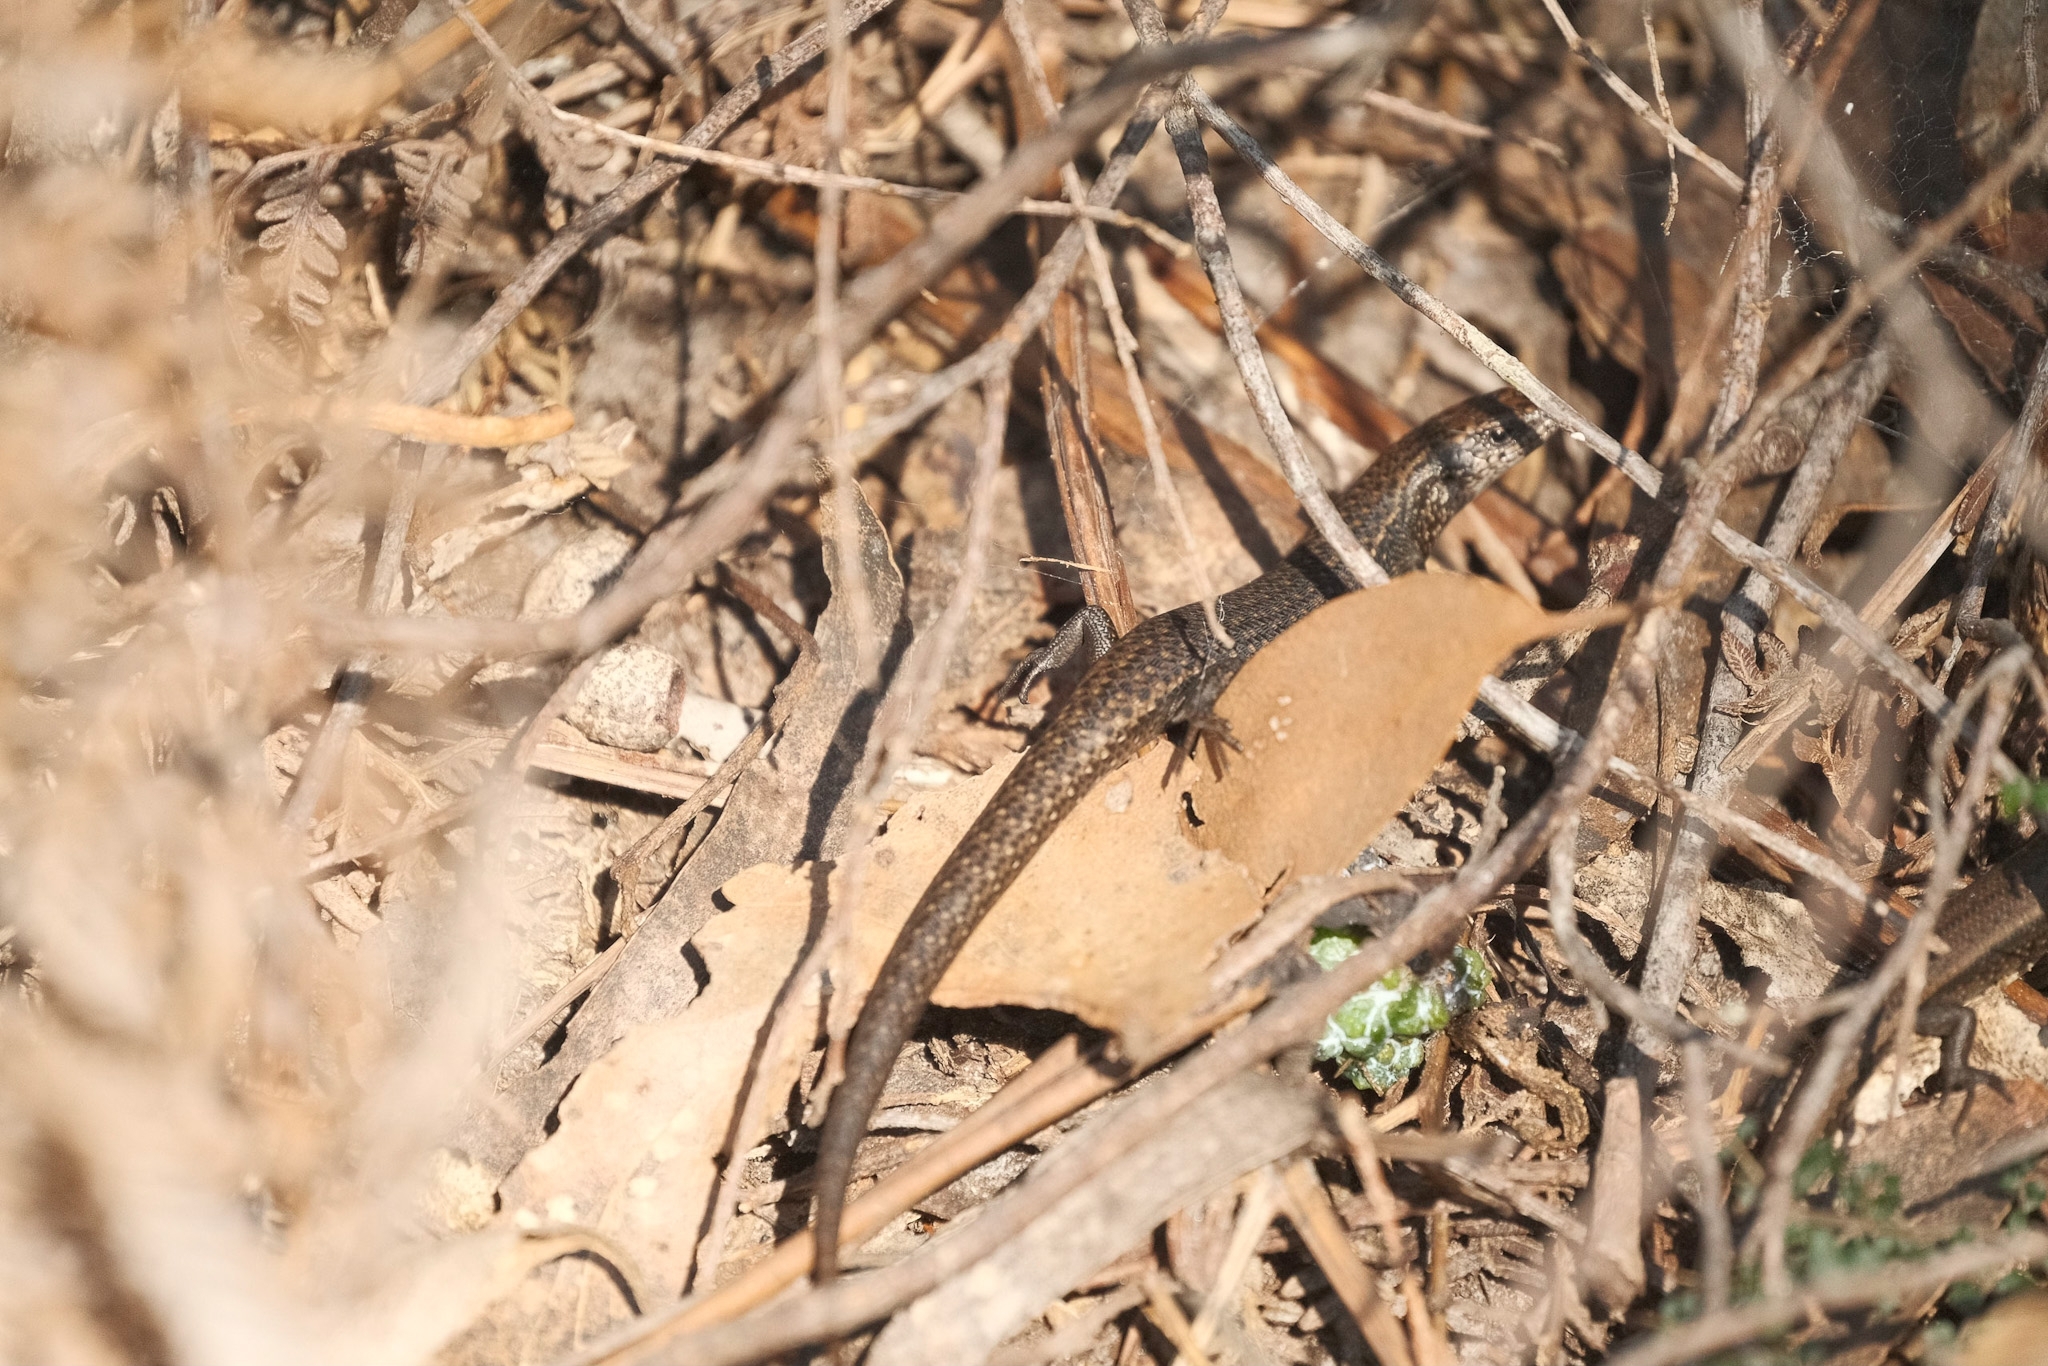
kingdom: Animalia
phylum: Chordata
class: Squamata
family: Scincidae
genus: Carinascincus
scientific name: Carinascincus metallicus
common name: Metallic cool-skink
